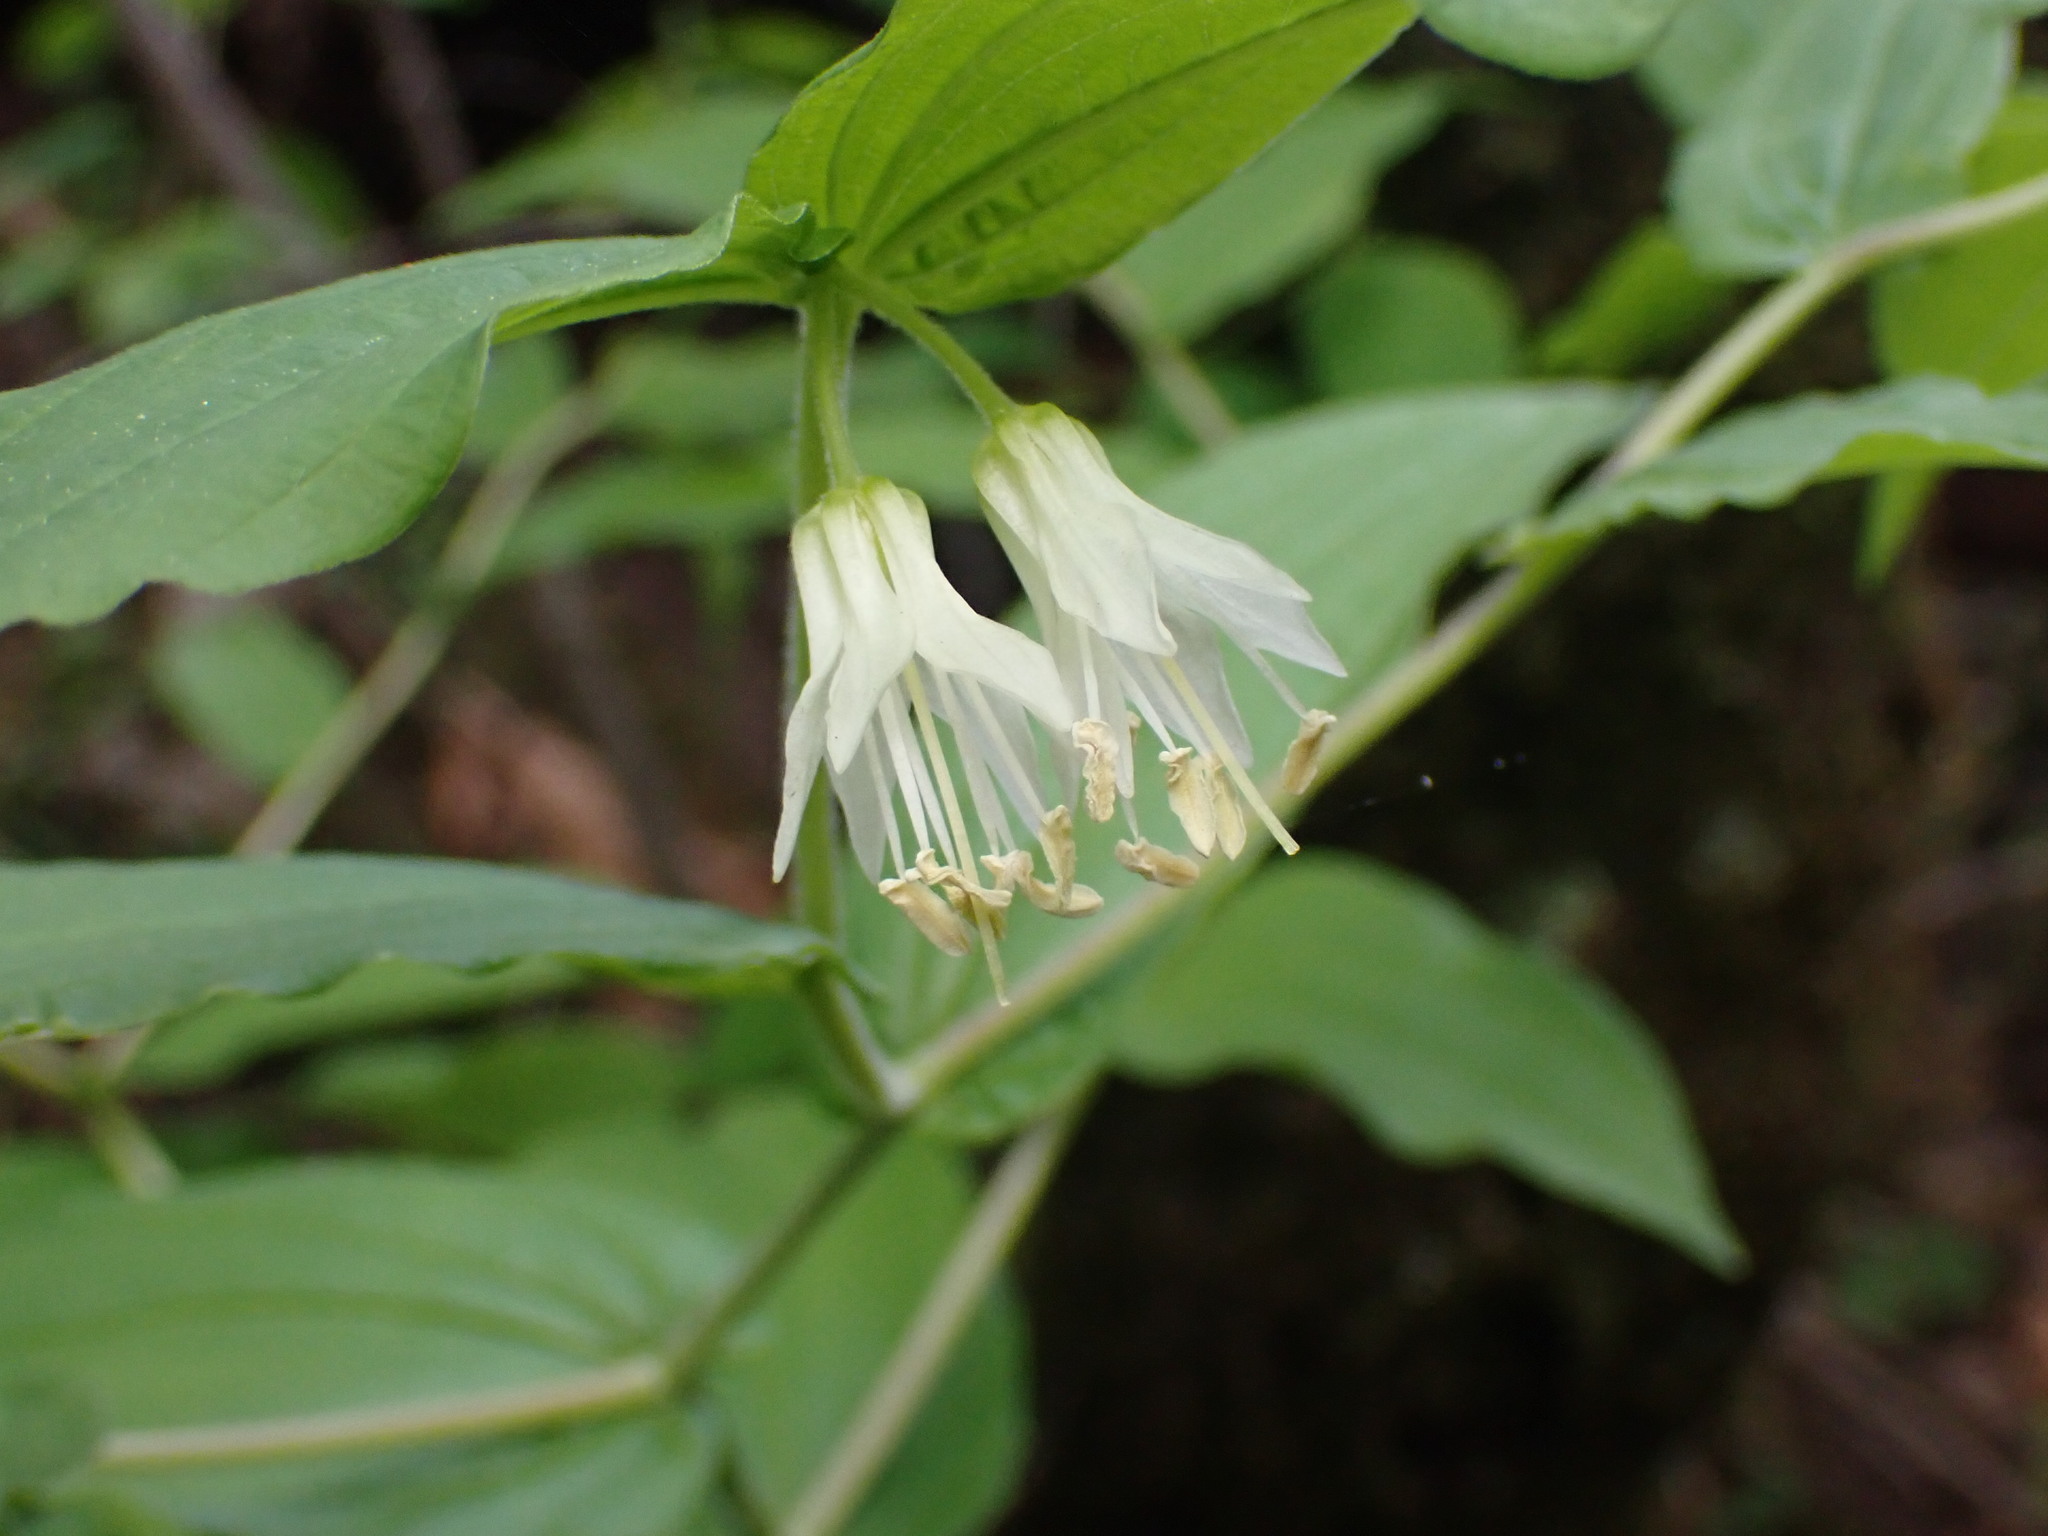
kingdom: Plantae
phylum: Tracheophyta
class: Liliopsida
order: Liliales
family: Liliaceae
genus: Prosartes
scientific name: Prosartes hookeri
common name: Fairy-bells
